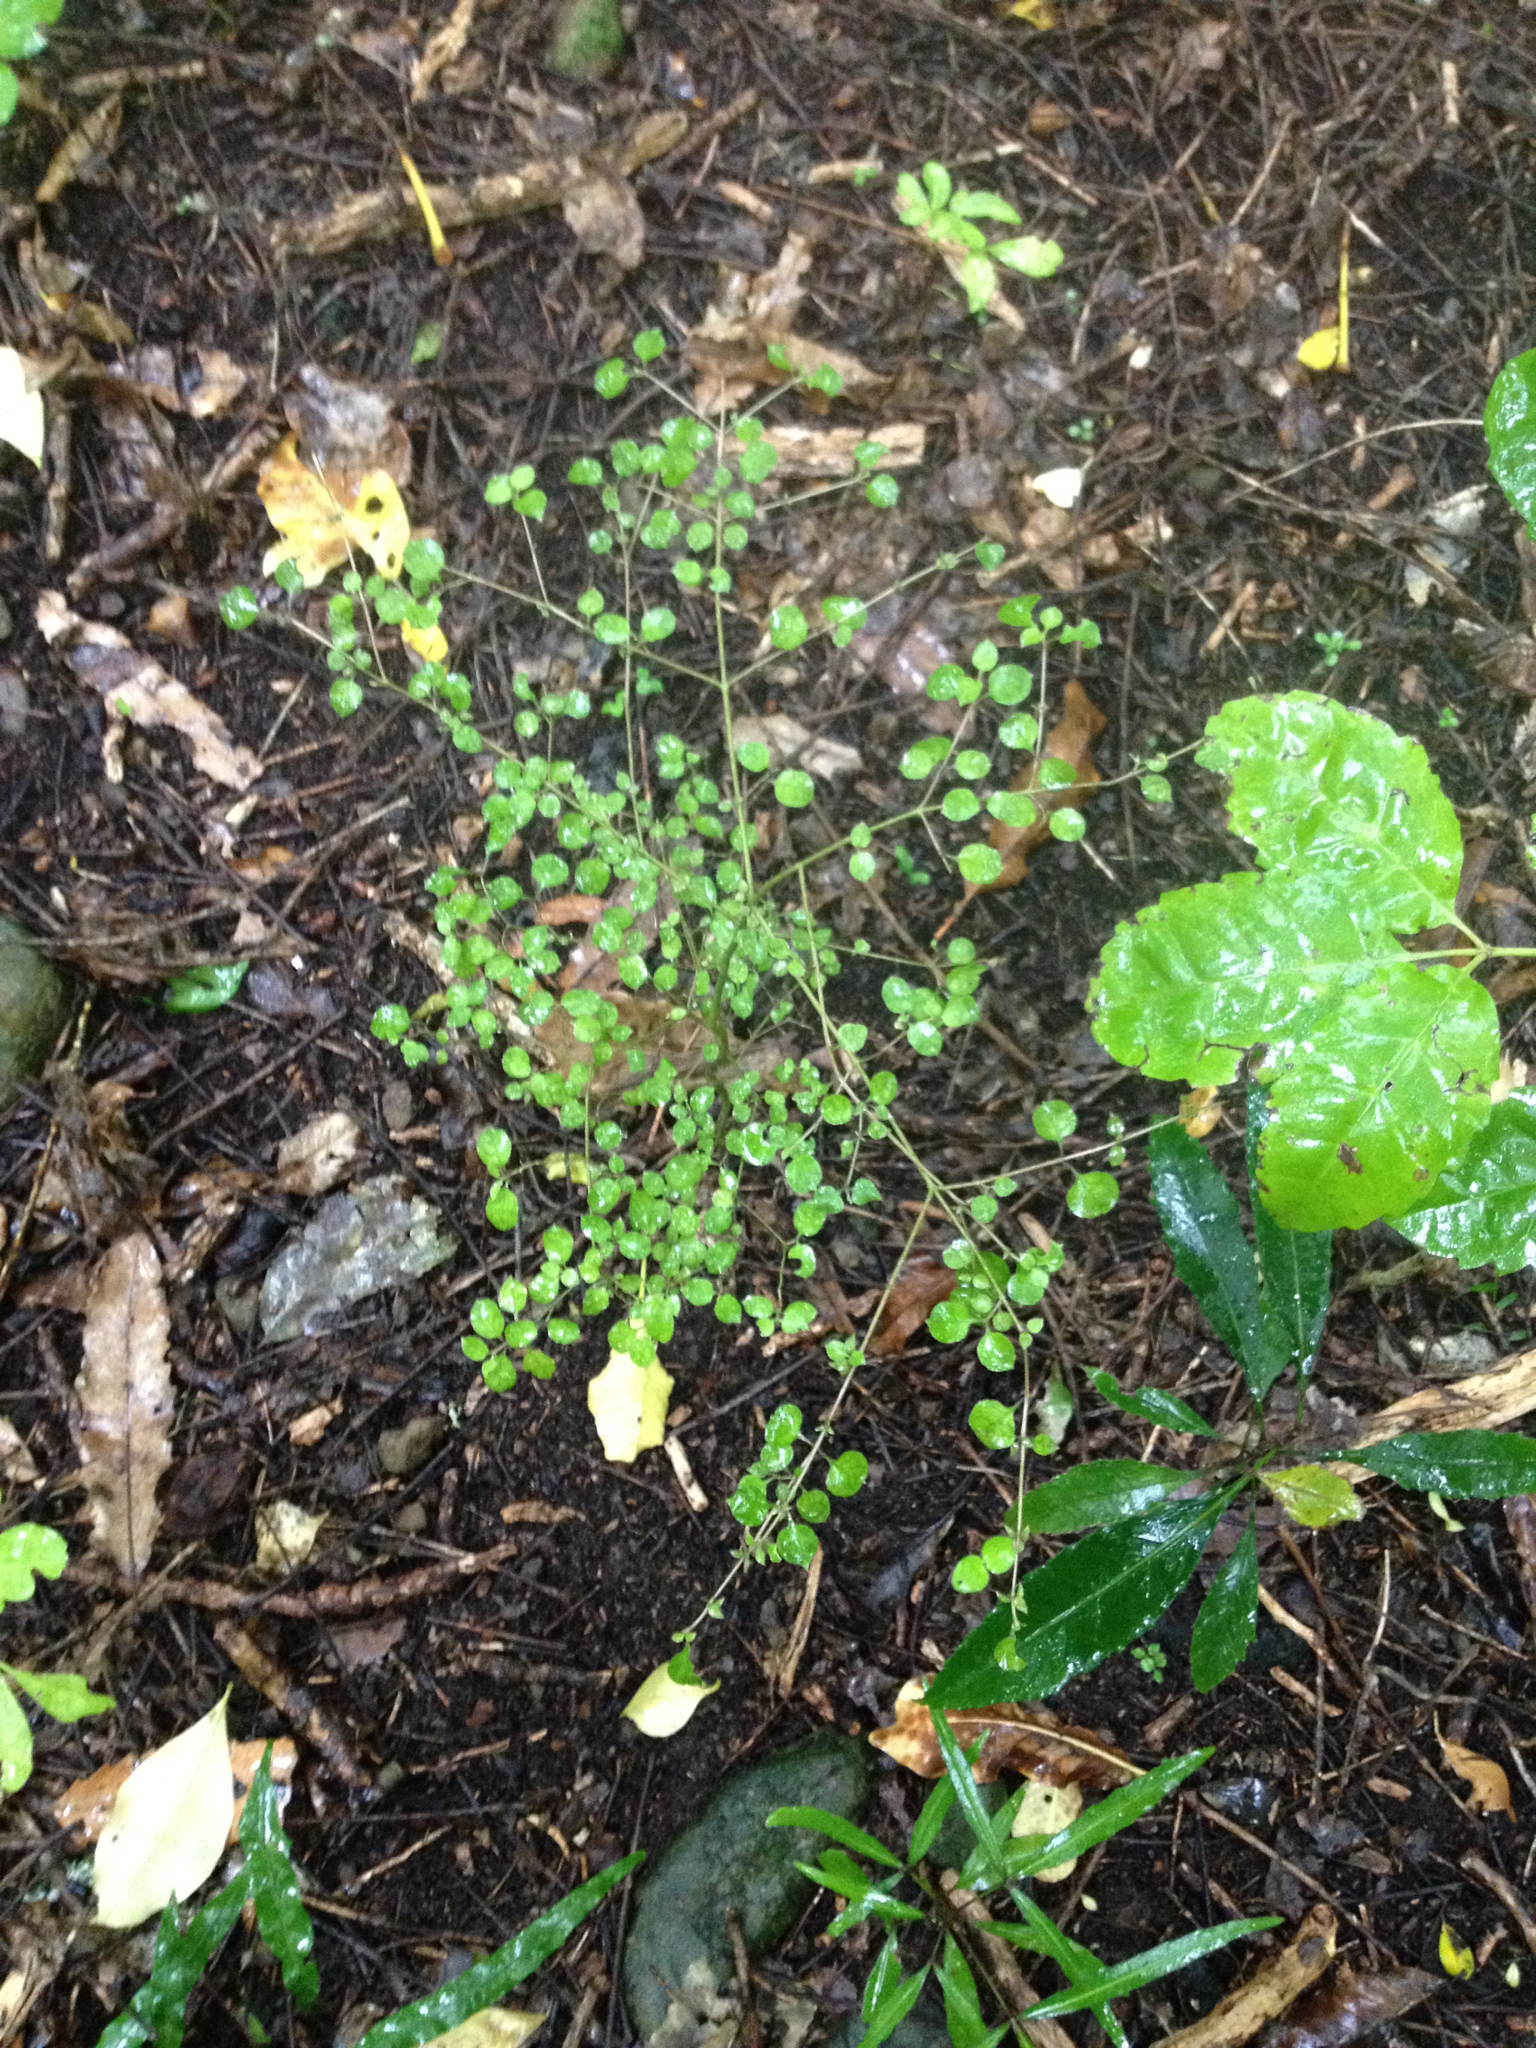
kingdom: Plantae
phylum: Tracheophyta
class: Magnoliopsida
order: Gentianales
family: Rubiaceae
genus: Coprosma
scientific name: Coprosma rotundifolia
